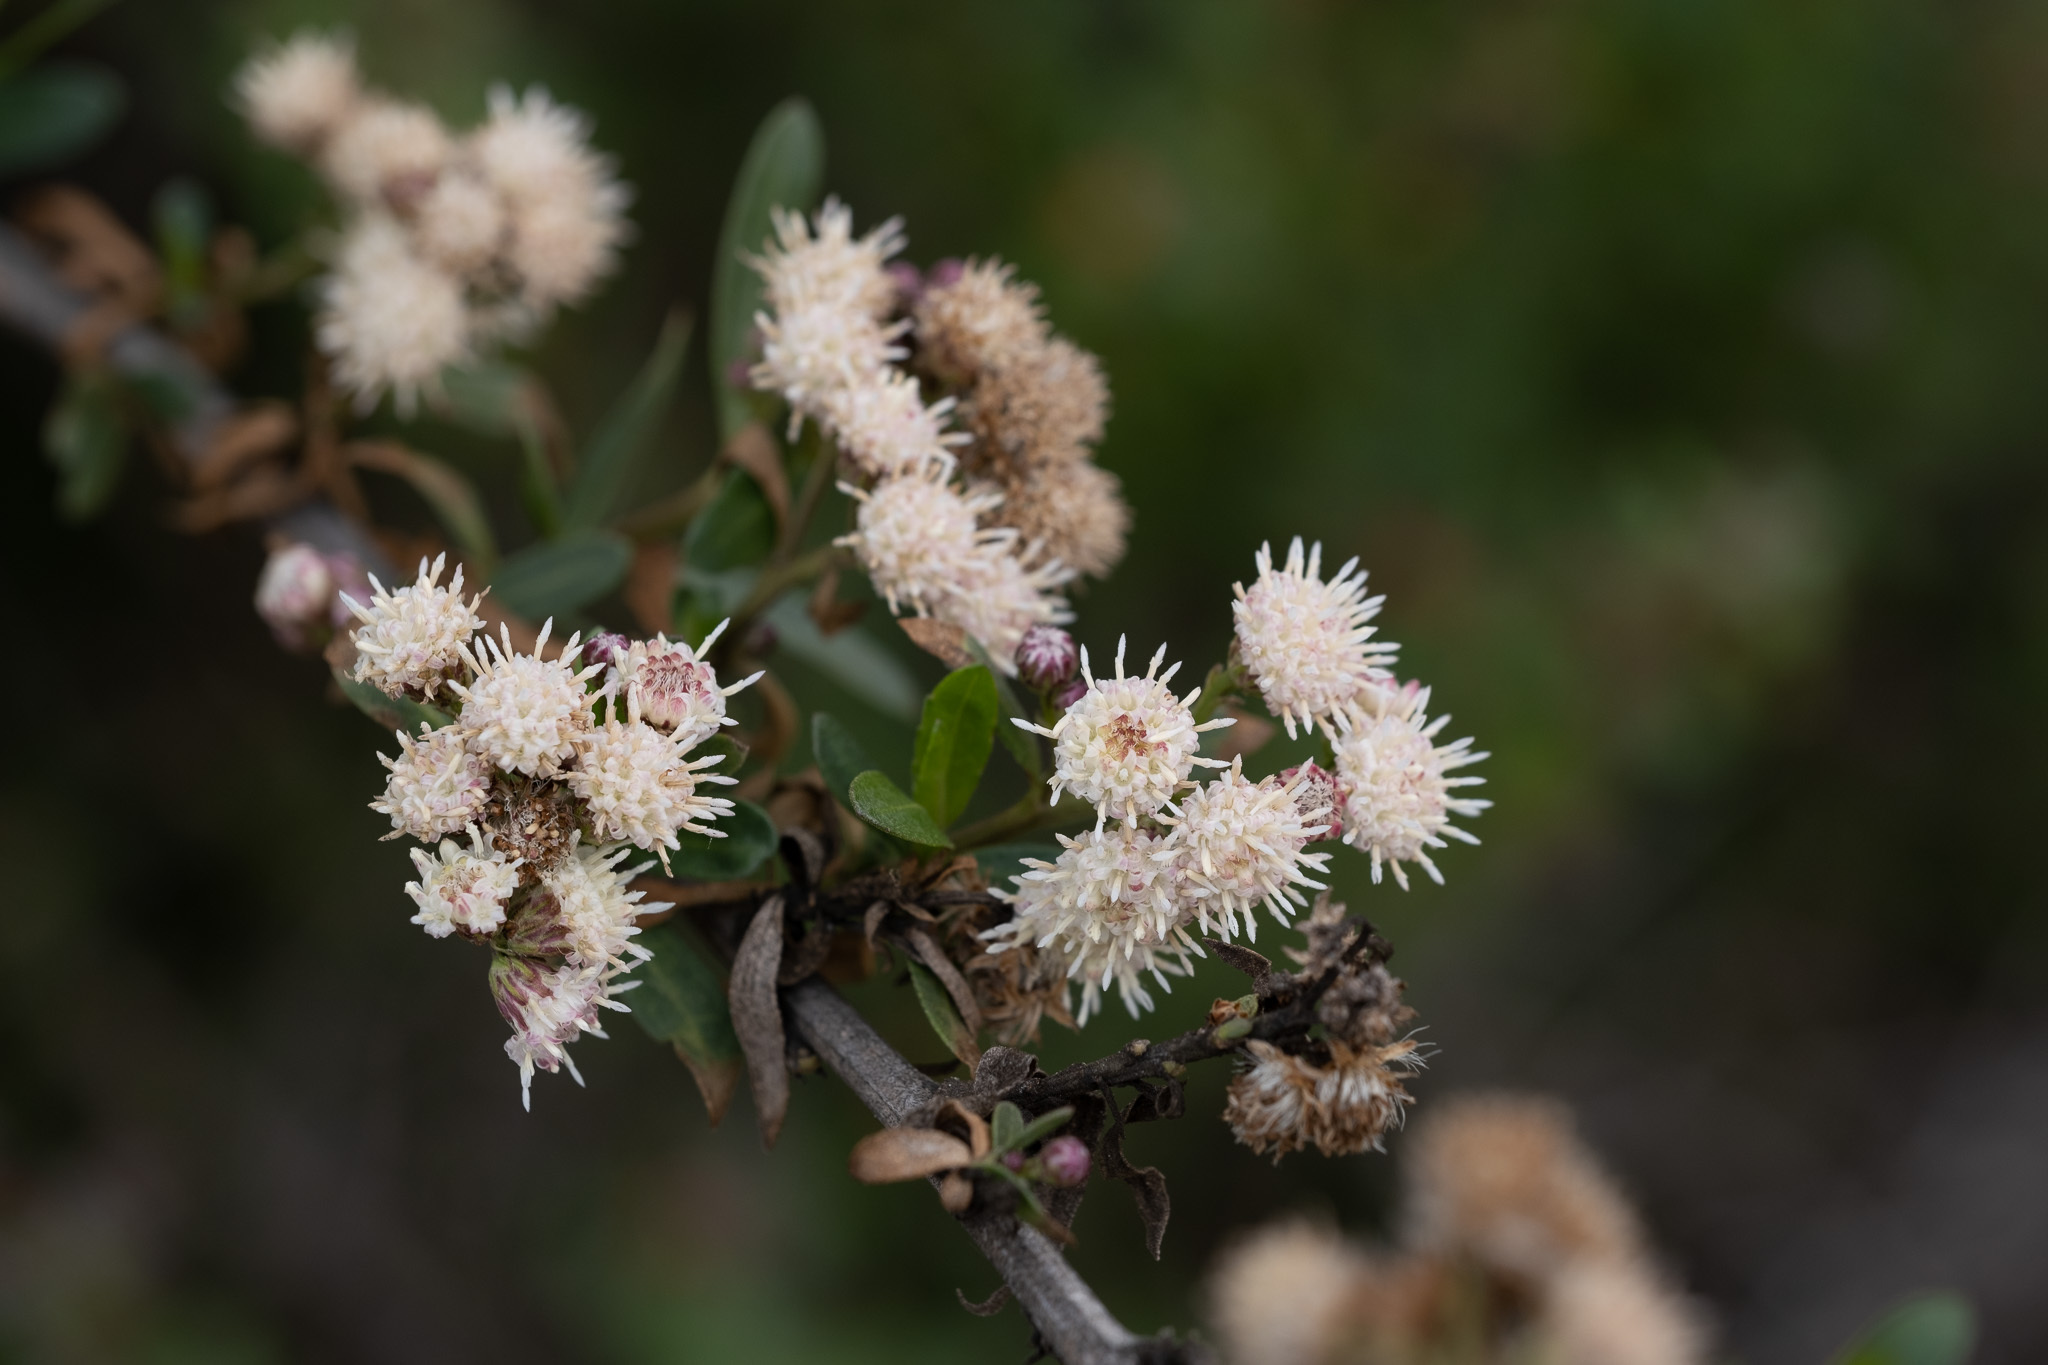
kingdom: Plantae
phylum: Tracheophyta
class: Magnoliopsida
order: Asterales
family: Asteraceae
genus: Baccharis
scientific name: Baccharis salicifolia
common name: Sticky baccharis
